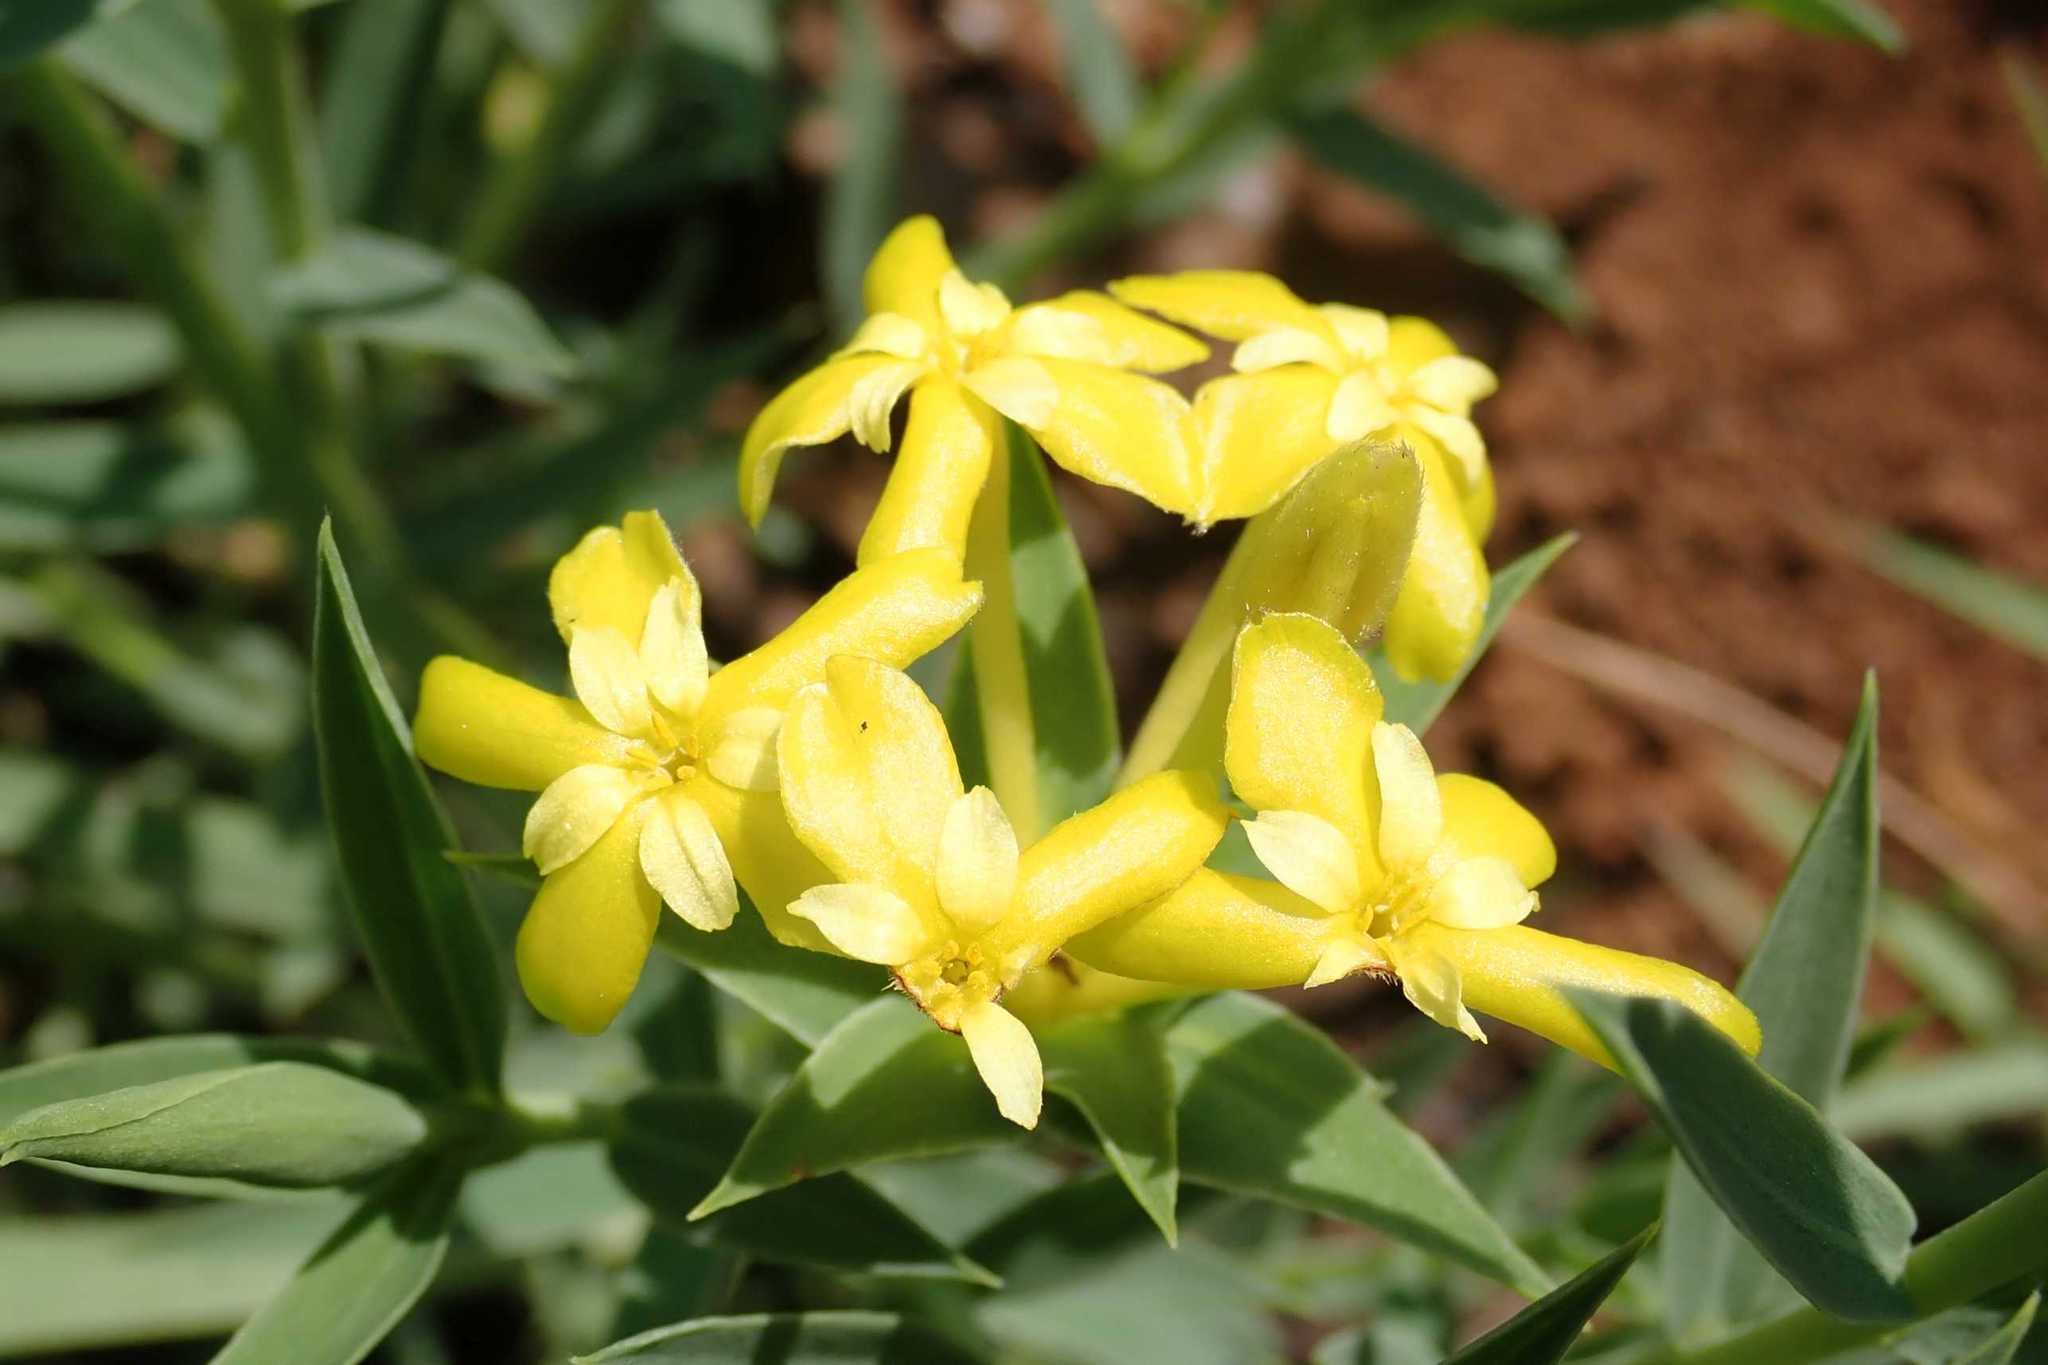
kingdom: Plantae
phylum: Tracheophyta
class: Magnoliopsida
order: Malvales
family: Thymelaeaceae
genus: Gnidia
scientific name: Gnidia capitata
